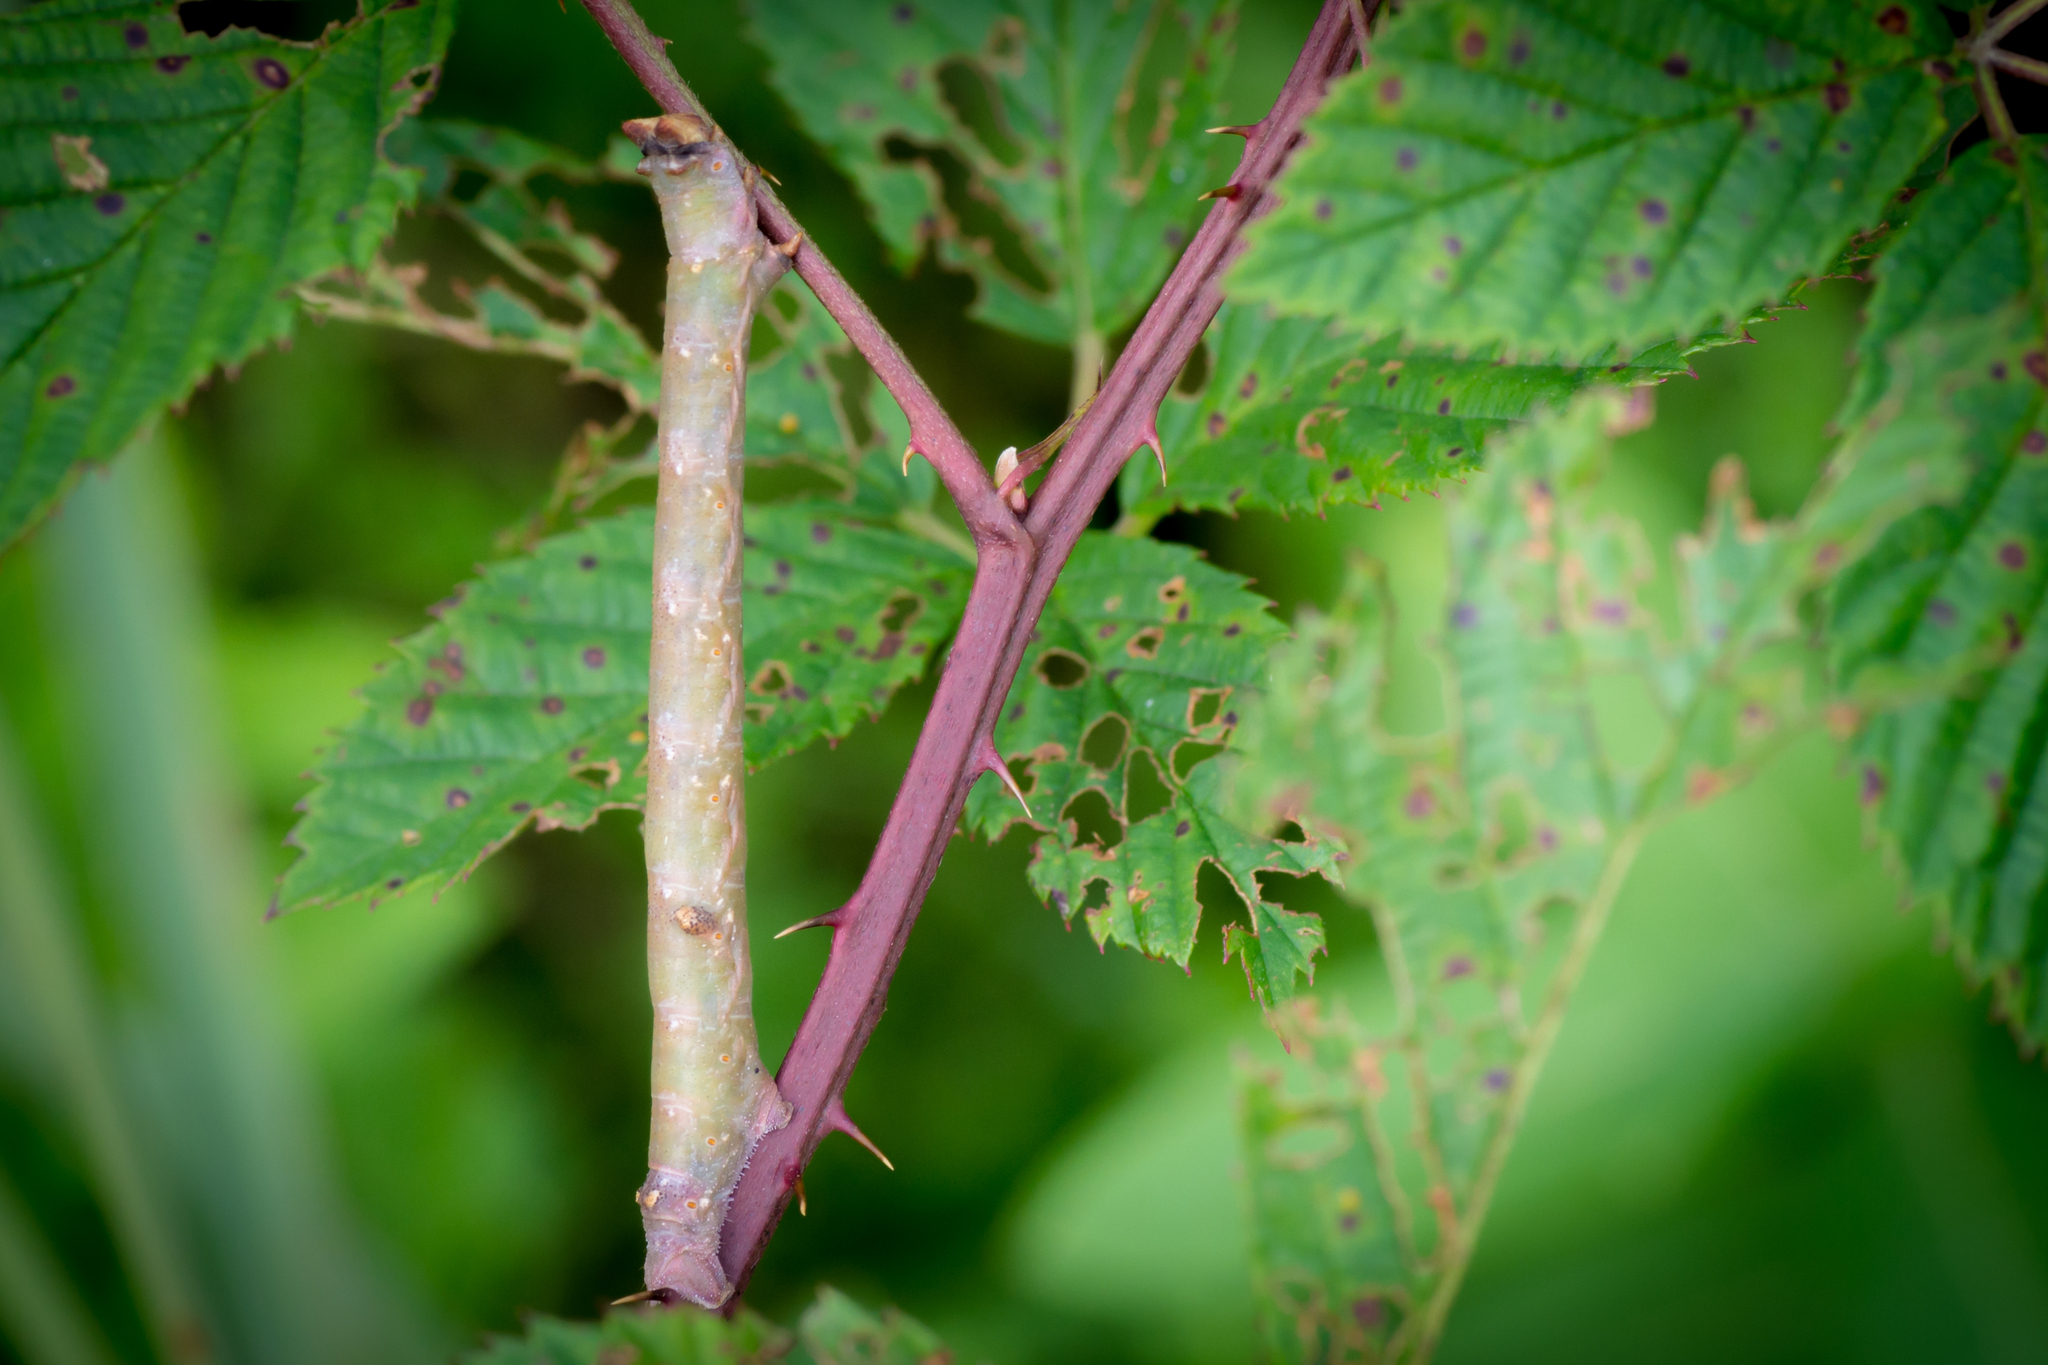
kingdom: Animalia
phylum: Arthropoda
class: Insecta
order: Lepidoptera
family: Geometridae
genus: Biston
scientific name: Biston betularia
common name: Peppered moth
